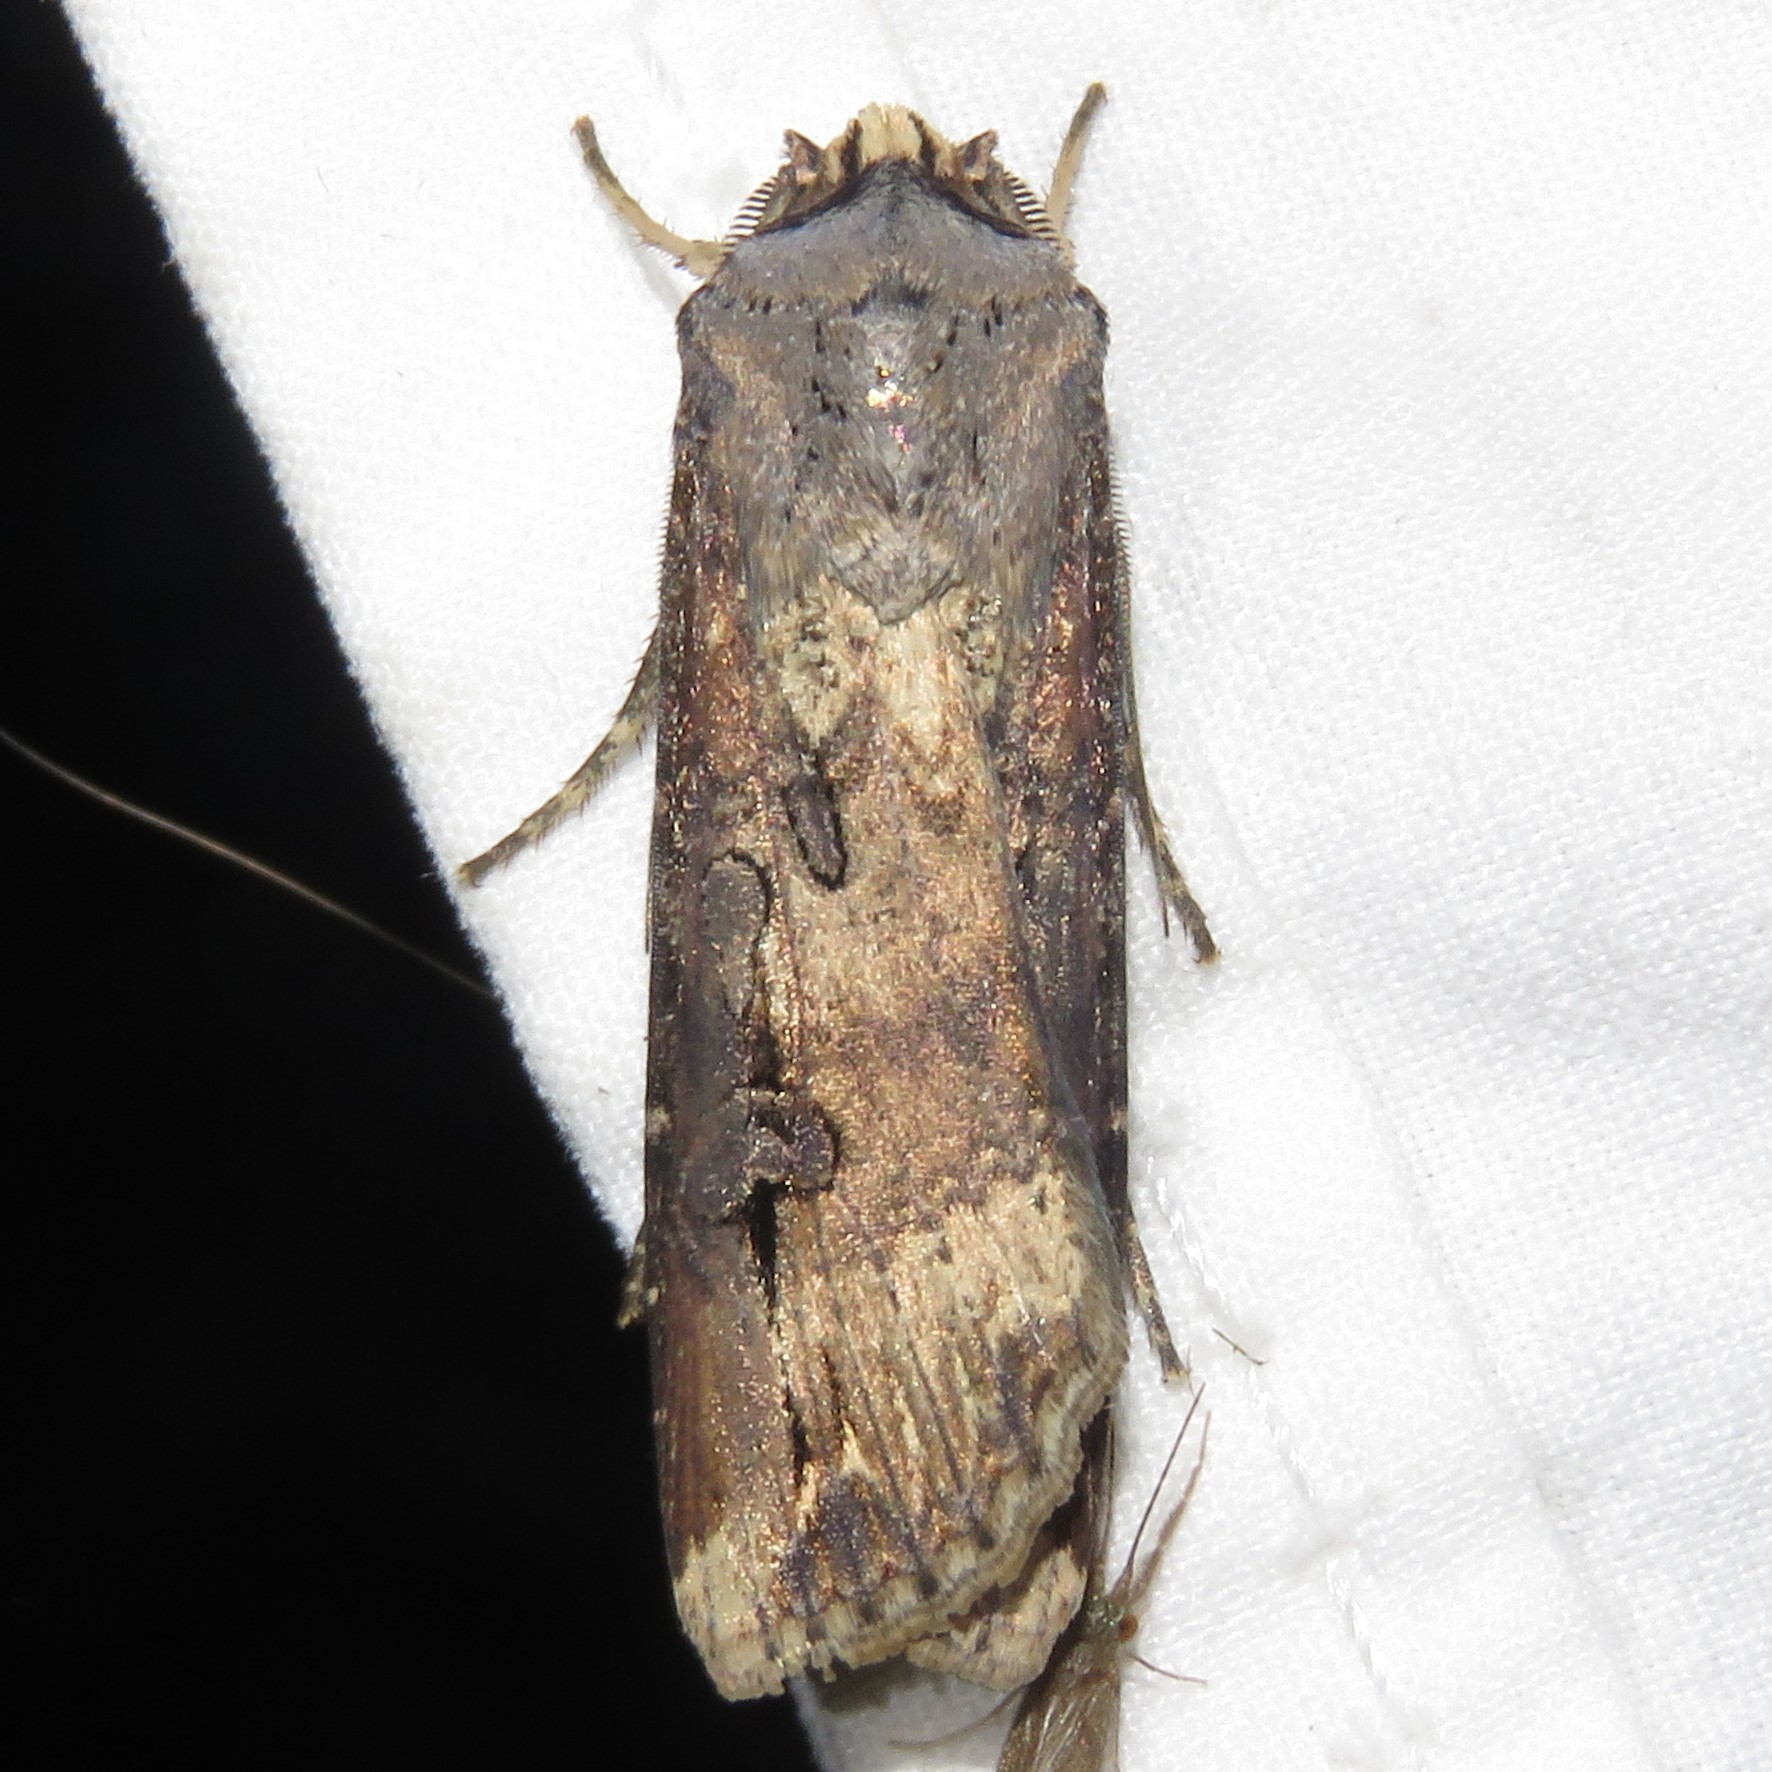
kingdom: Animalia
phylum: Arthropoda
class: Insecta
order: Lepidoptera
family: Noctuidae
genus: Agrotis
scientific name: Agrotis ipsilon
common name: Dark sword-grass
